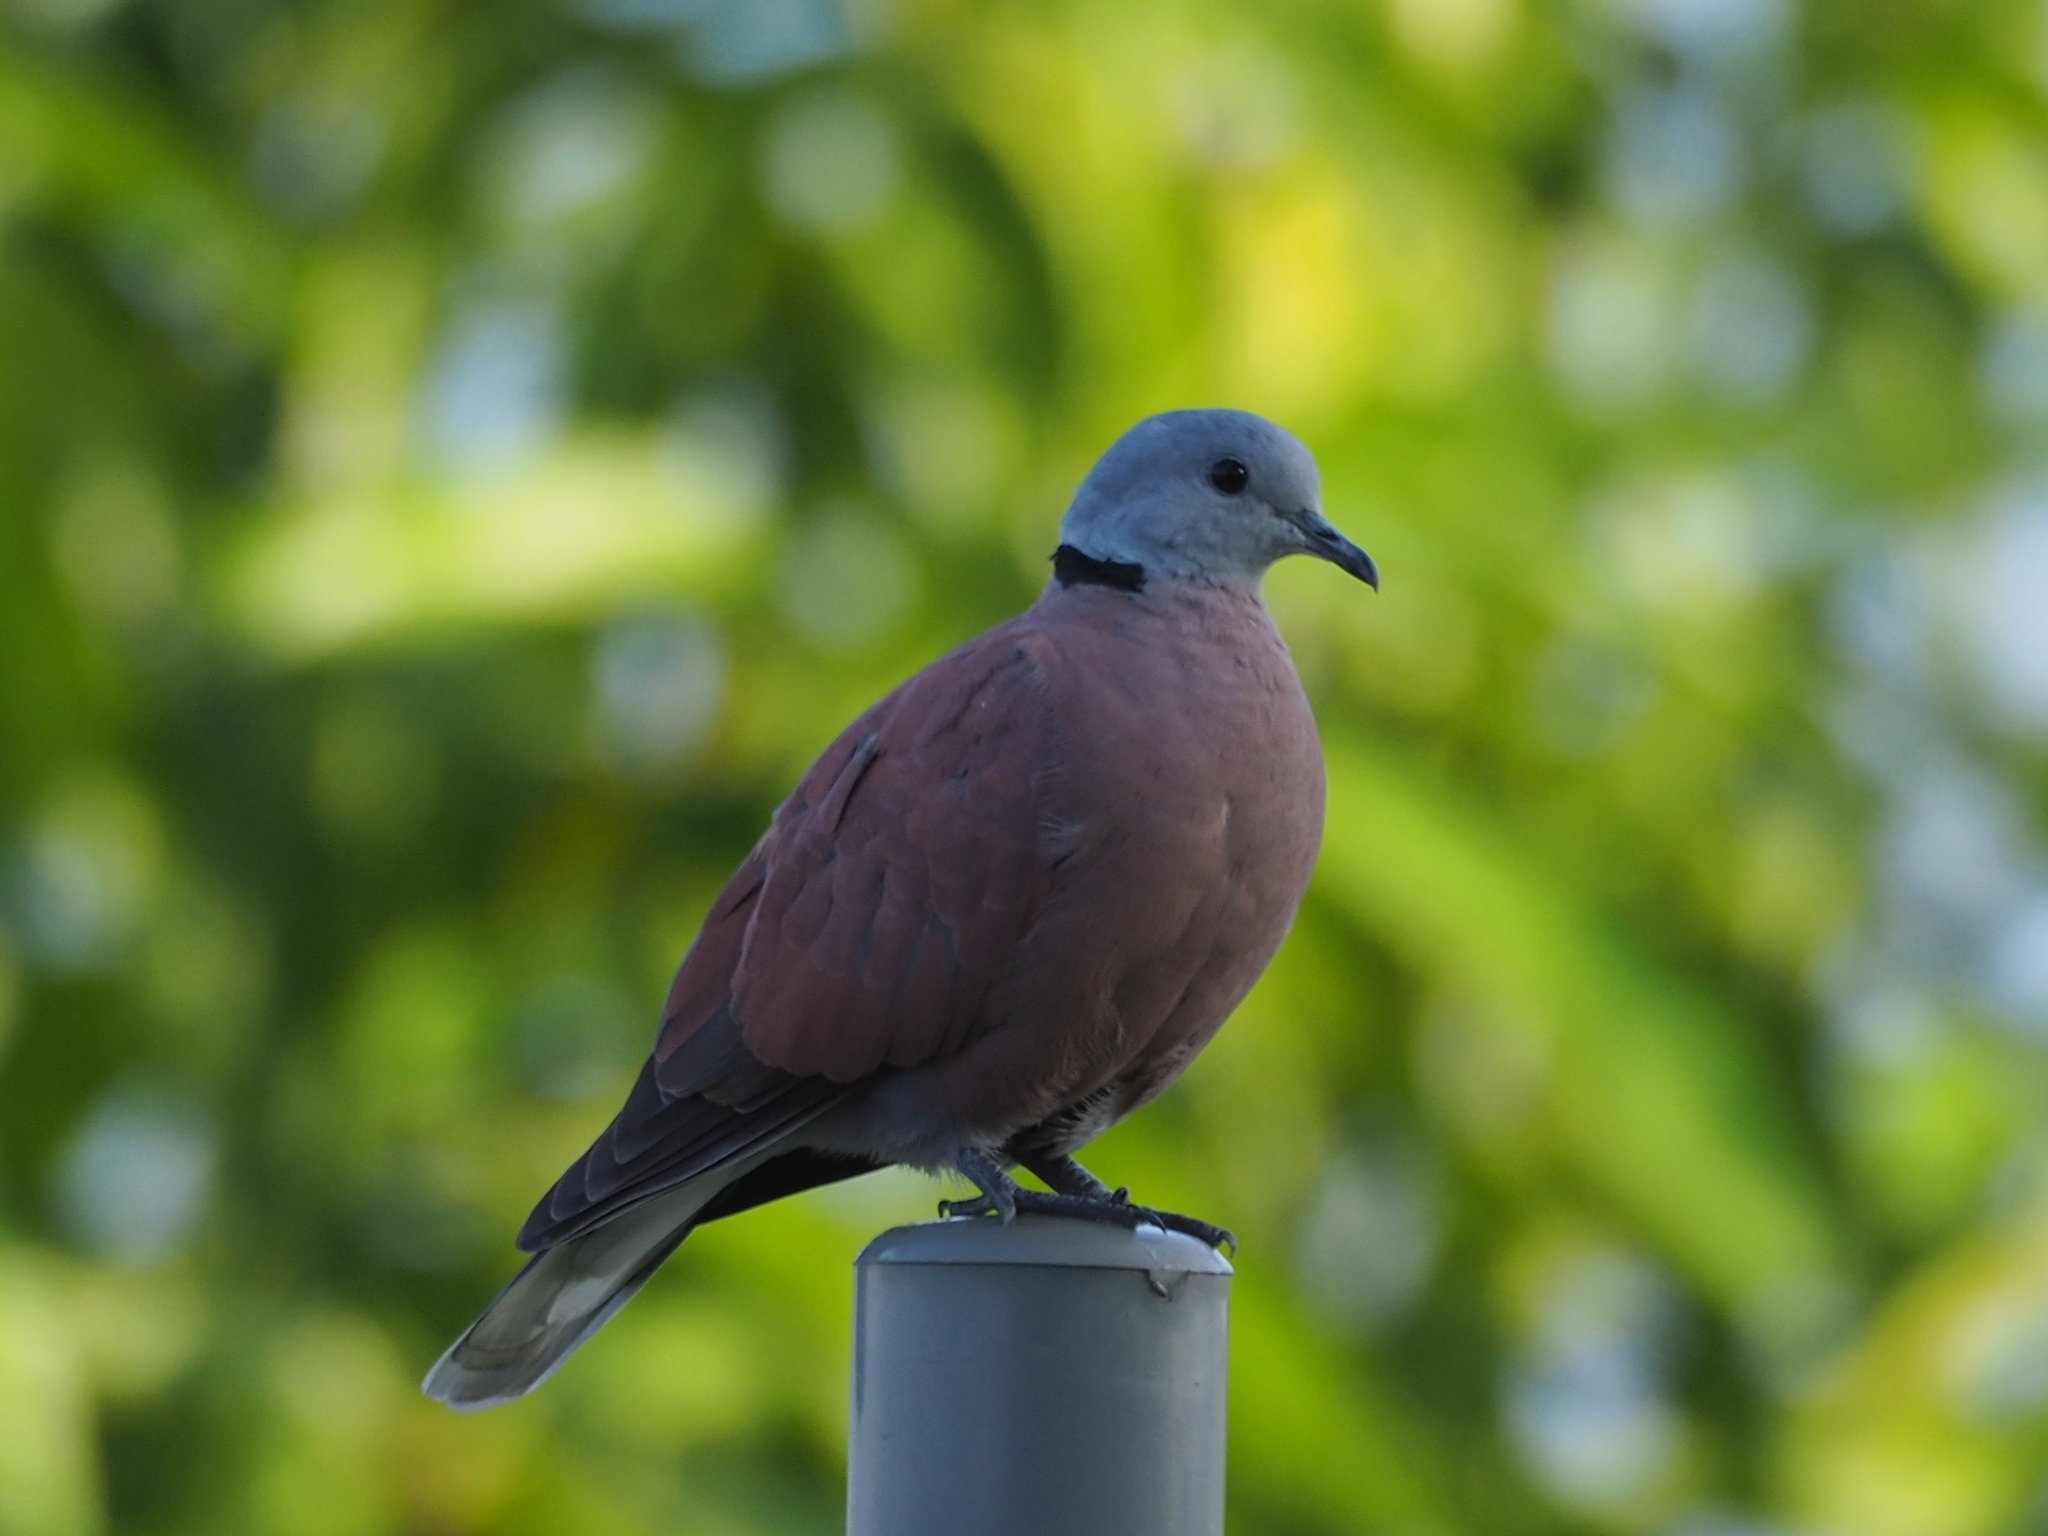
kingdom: Animalia
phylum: Chordata
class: Aves
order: Columbiformes
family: Columbidae
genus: Streptopelia
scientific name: Streptopelia tranquebarica
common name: Red turtle dove
